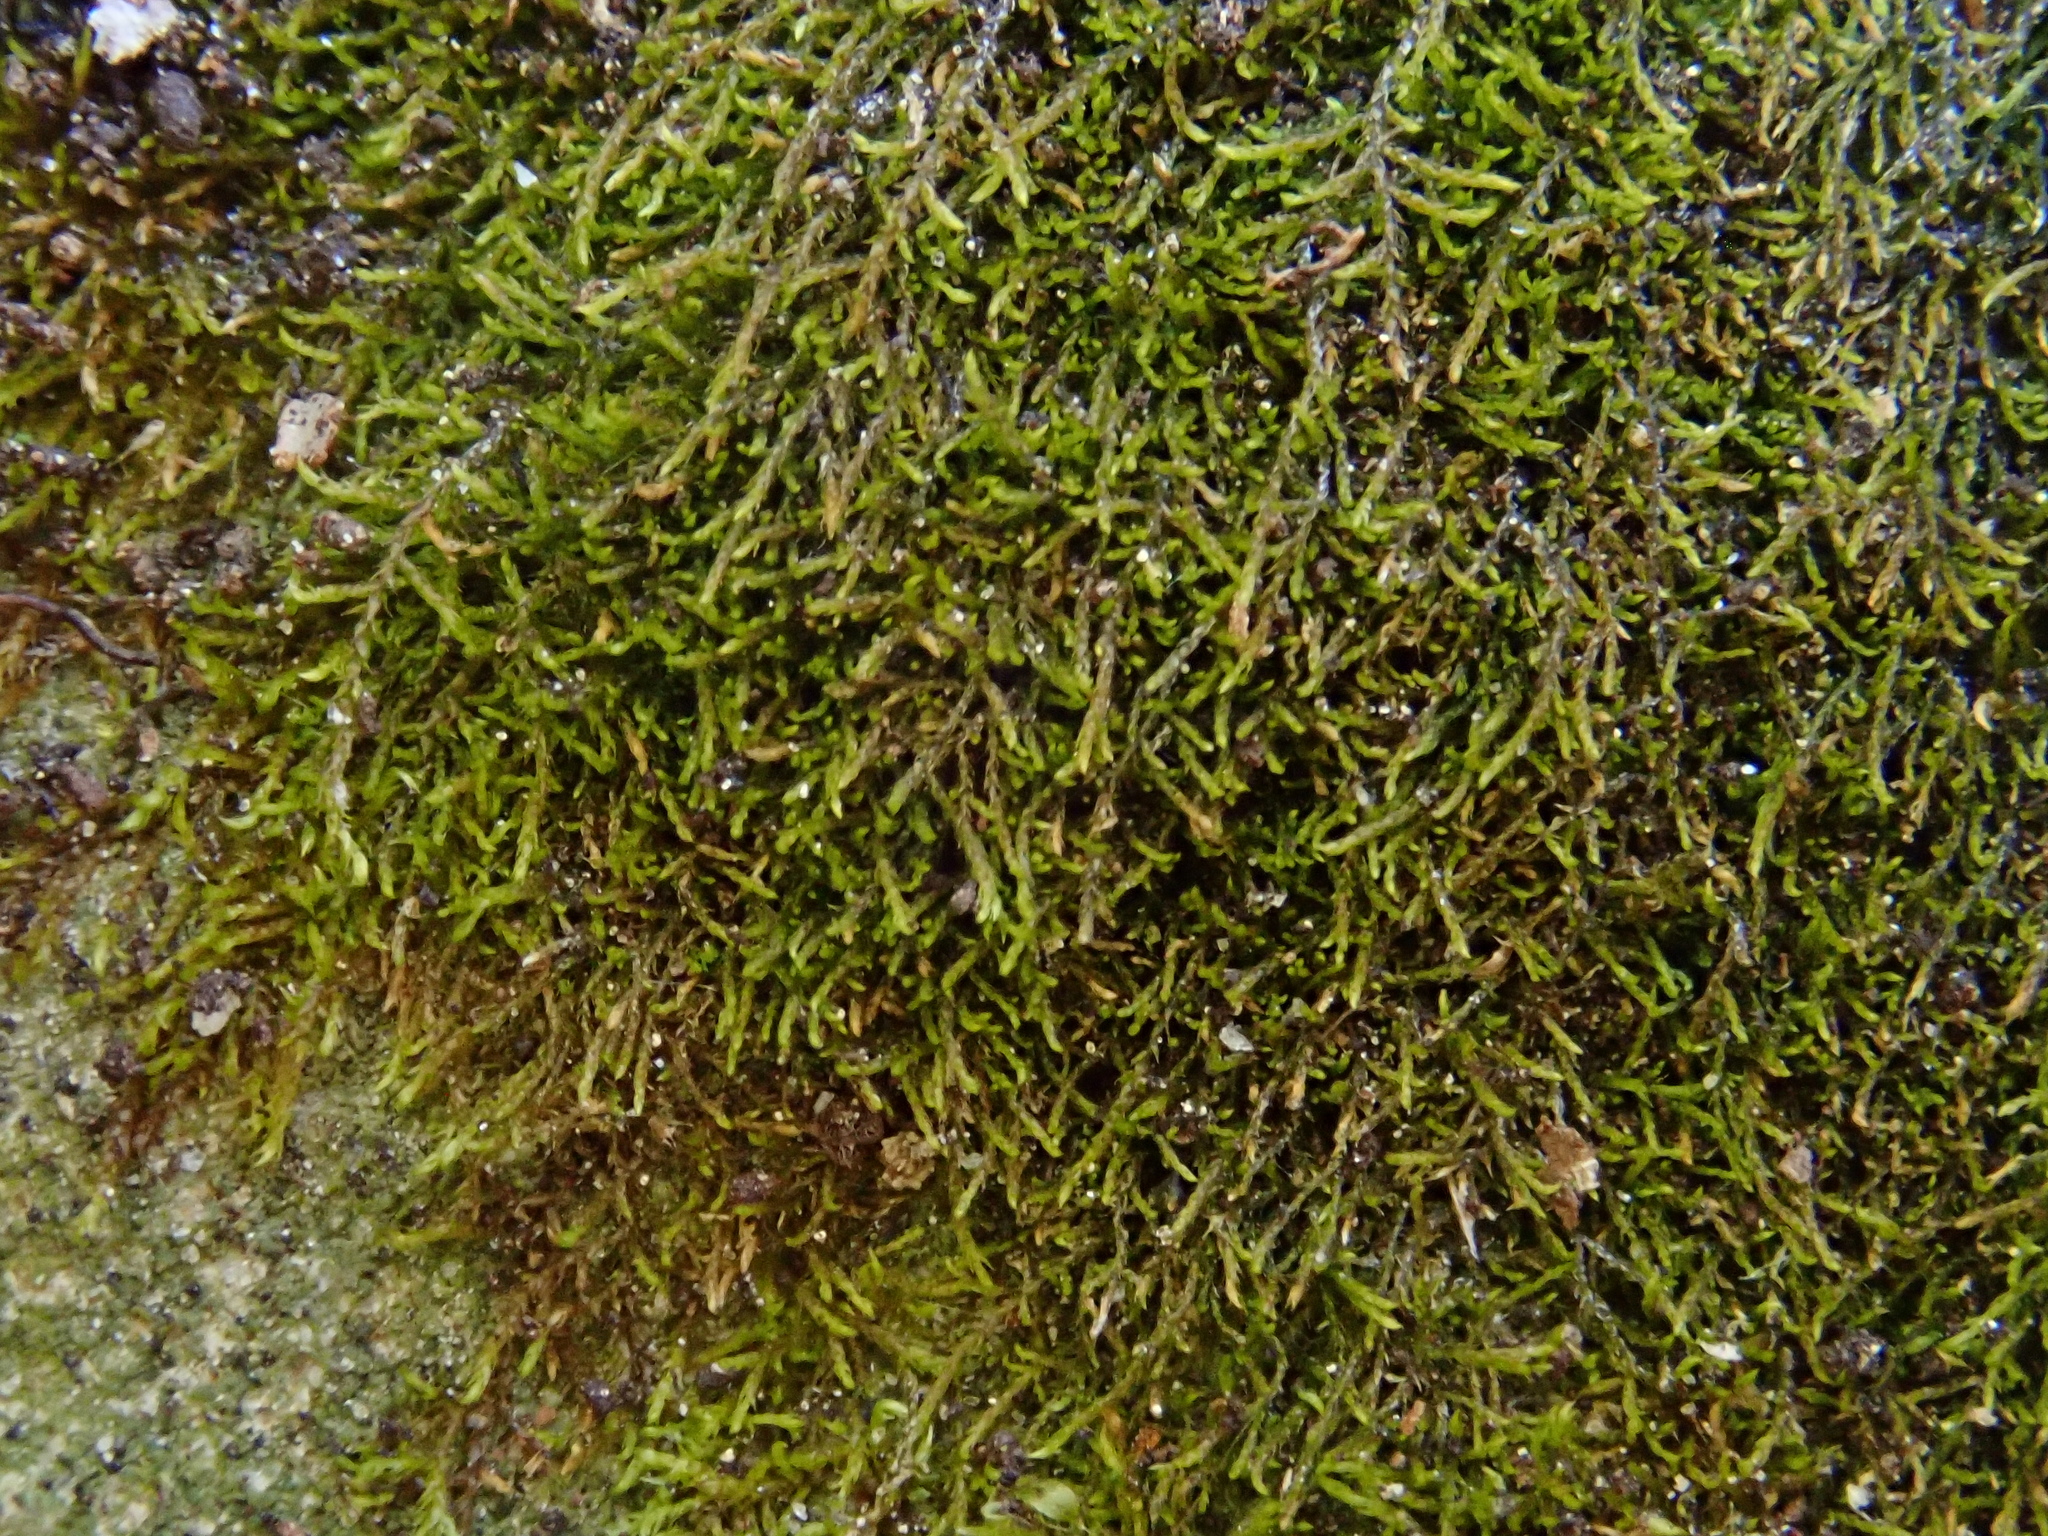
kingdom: Plantae
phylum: Bryophyta
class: Bryopsida
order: Hypnales
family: Pseudoleskeellaceae
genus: Pseudoleskeella
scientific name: Pseudoleskeella catenulata
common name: Chained leskea
